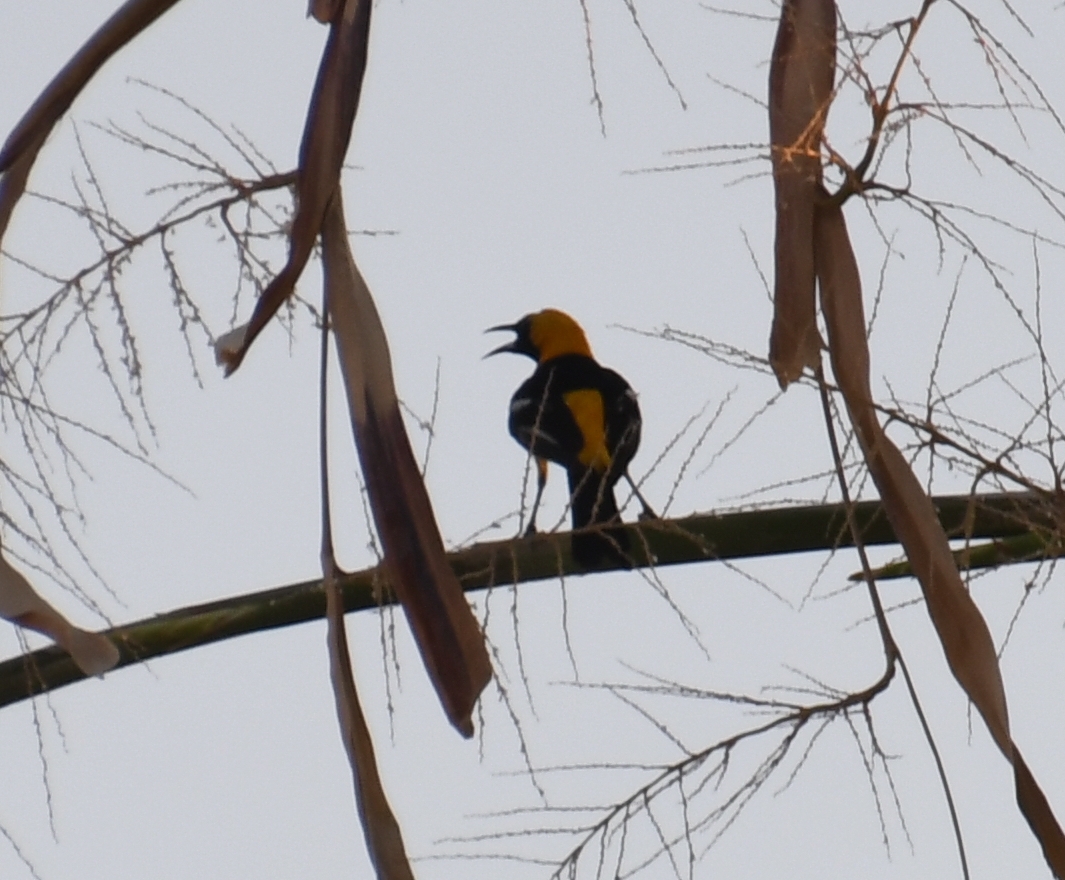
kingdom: Animalia
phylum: Chordata
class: Aves
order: Passeriformes
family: Icteridae
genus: Icterus
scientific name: Icterus cucullatus
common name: Hooded oriole
